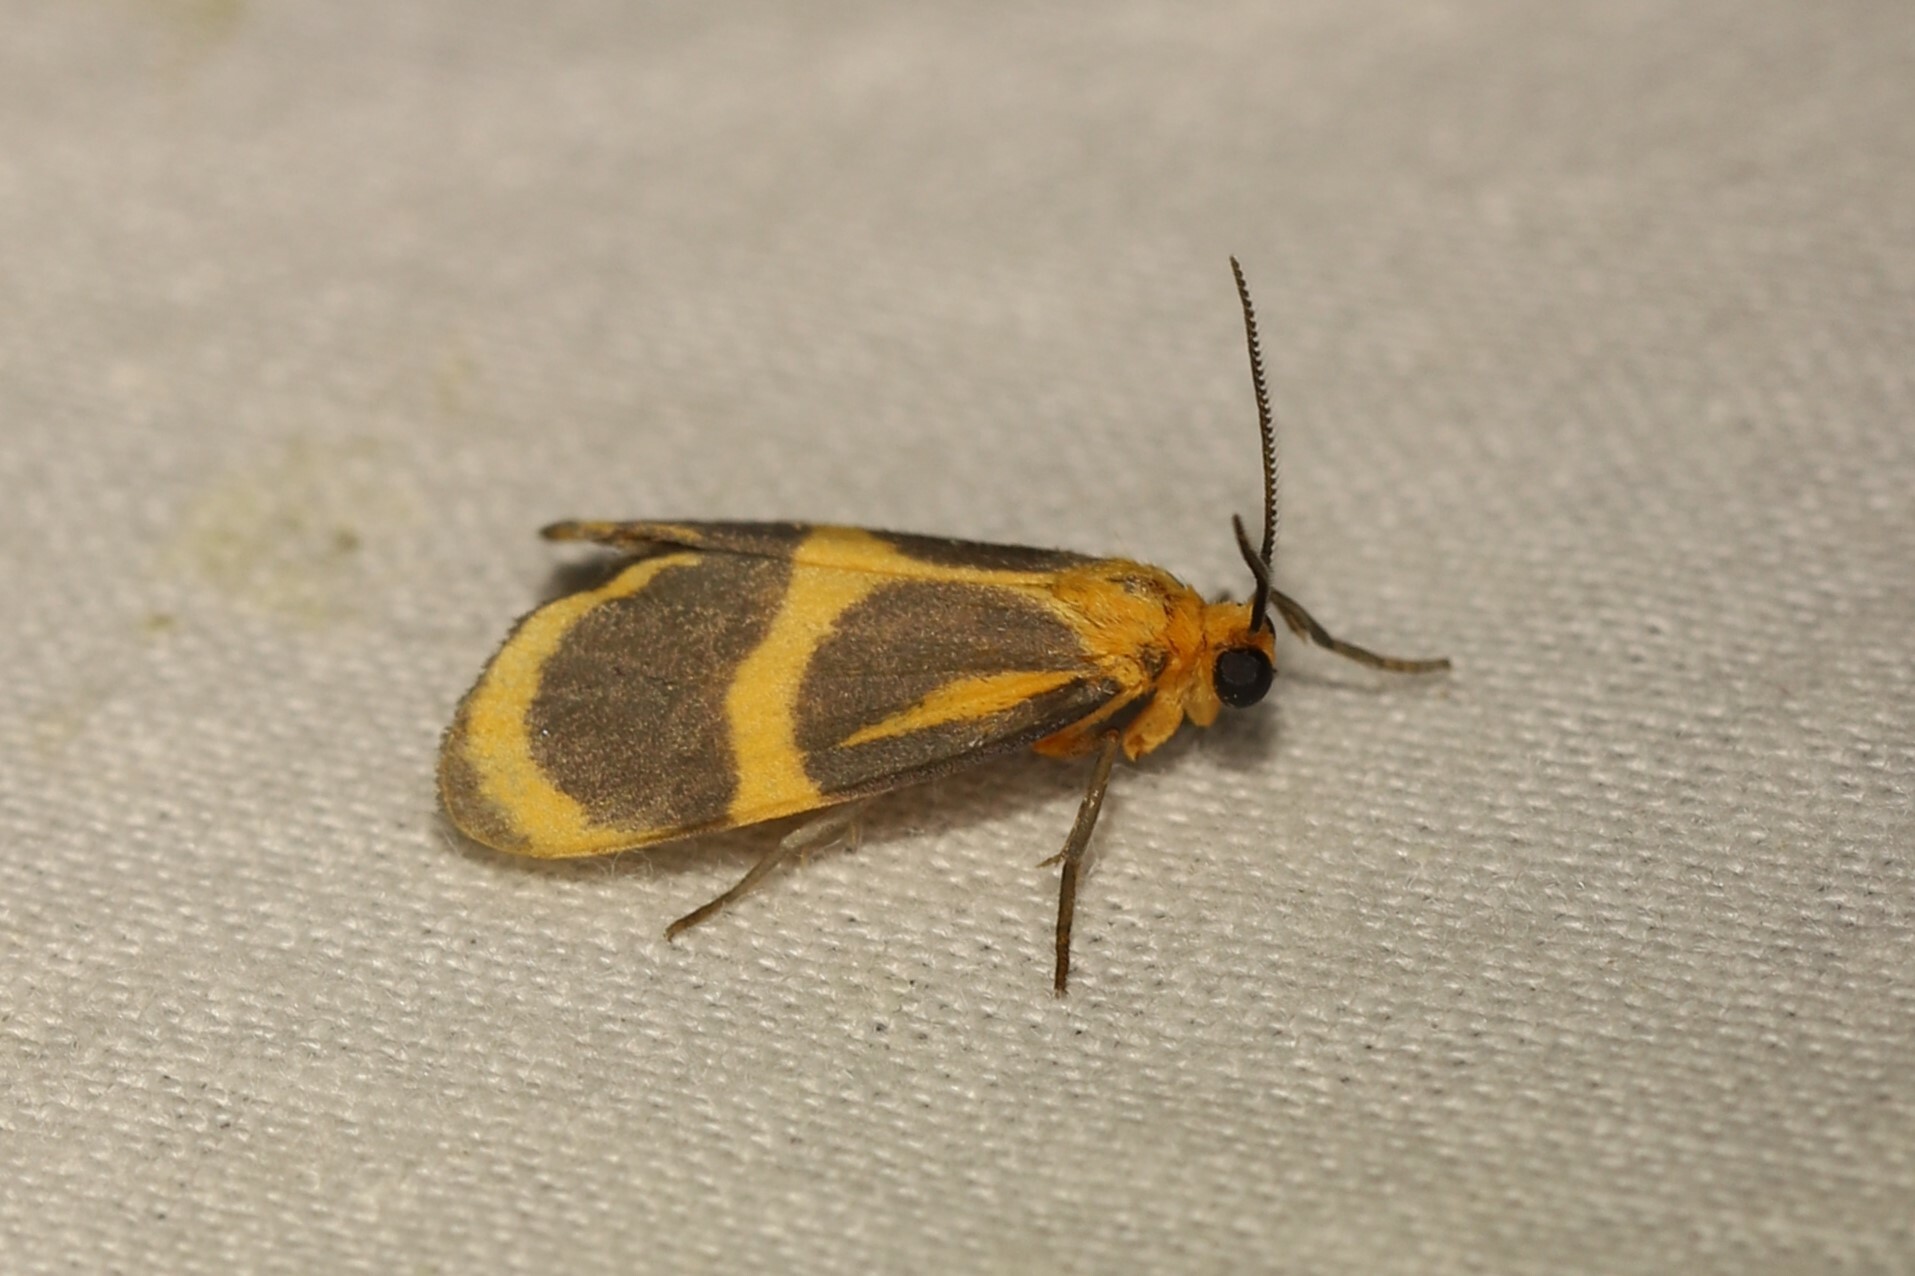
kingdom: Animalia
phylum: Arthropoda
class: Insecta
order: Lepidoptera
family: Erebidae
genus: Eudesmia
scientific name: Eudesmia lunaris
